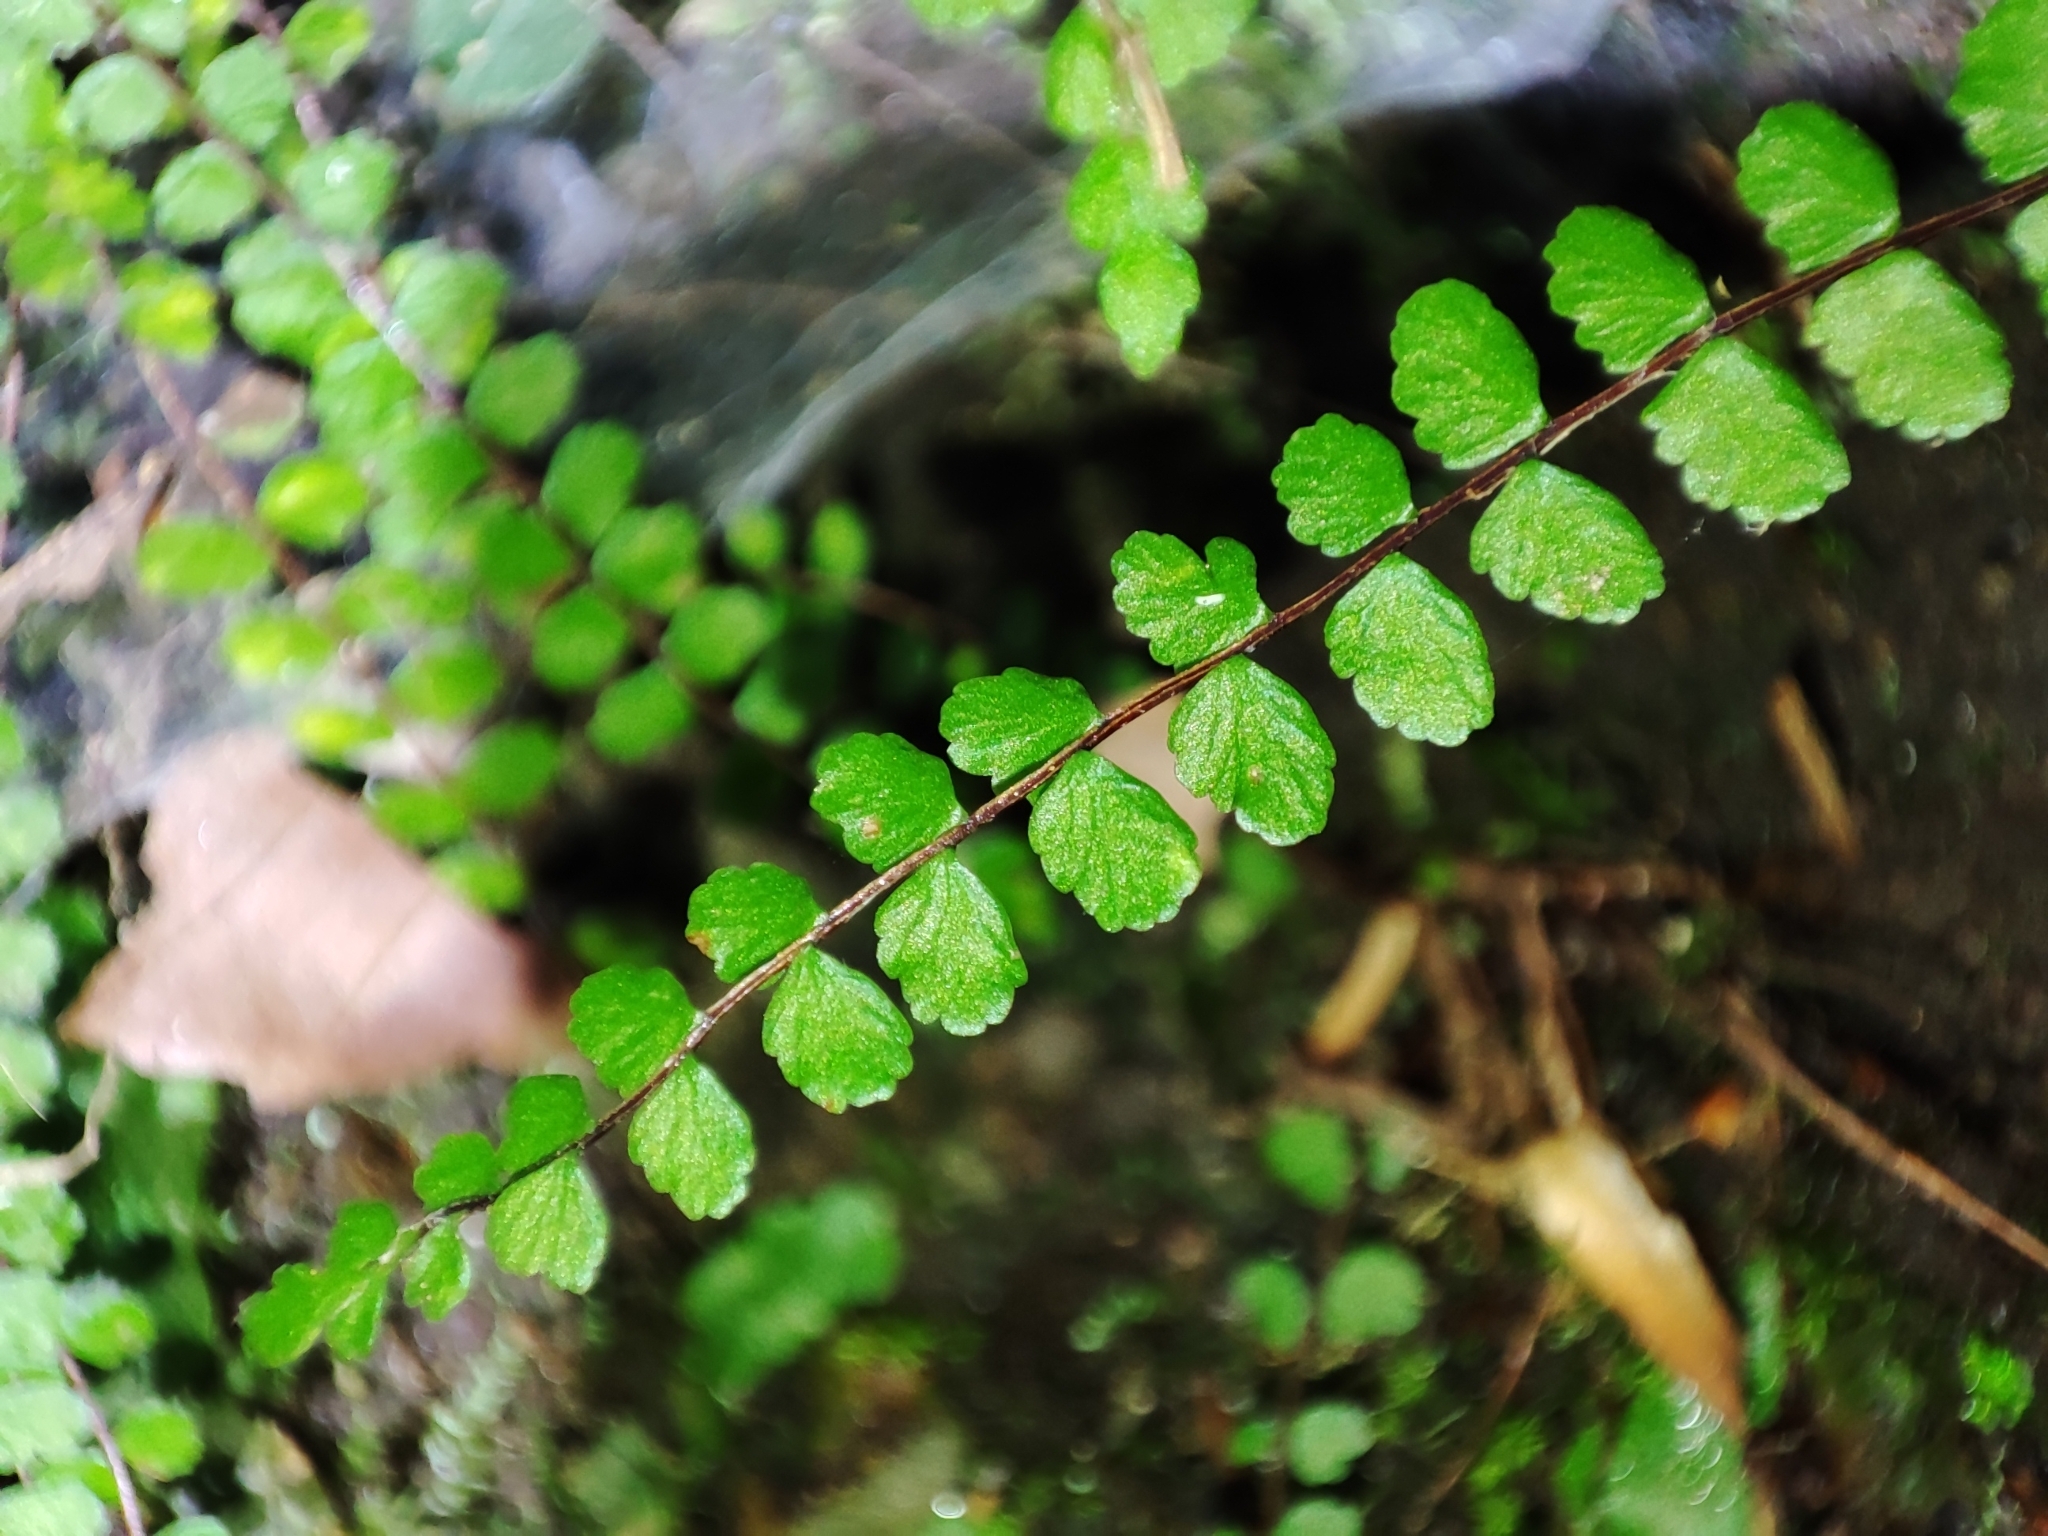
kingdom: Plantae
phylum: Tracheophyta
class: Polypodiopsida
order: Polypodiales
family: Aspleniaceae
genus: Asplenium
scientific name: Asplenium trichomanes
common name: Maidenhair spleenwort
